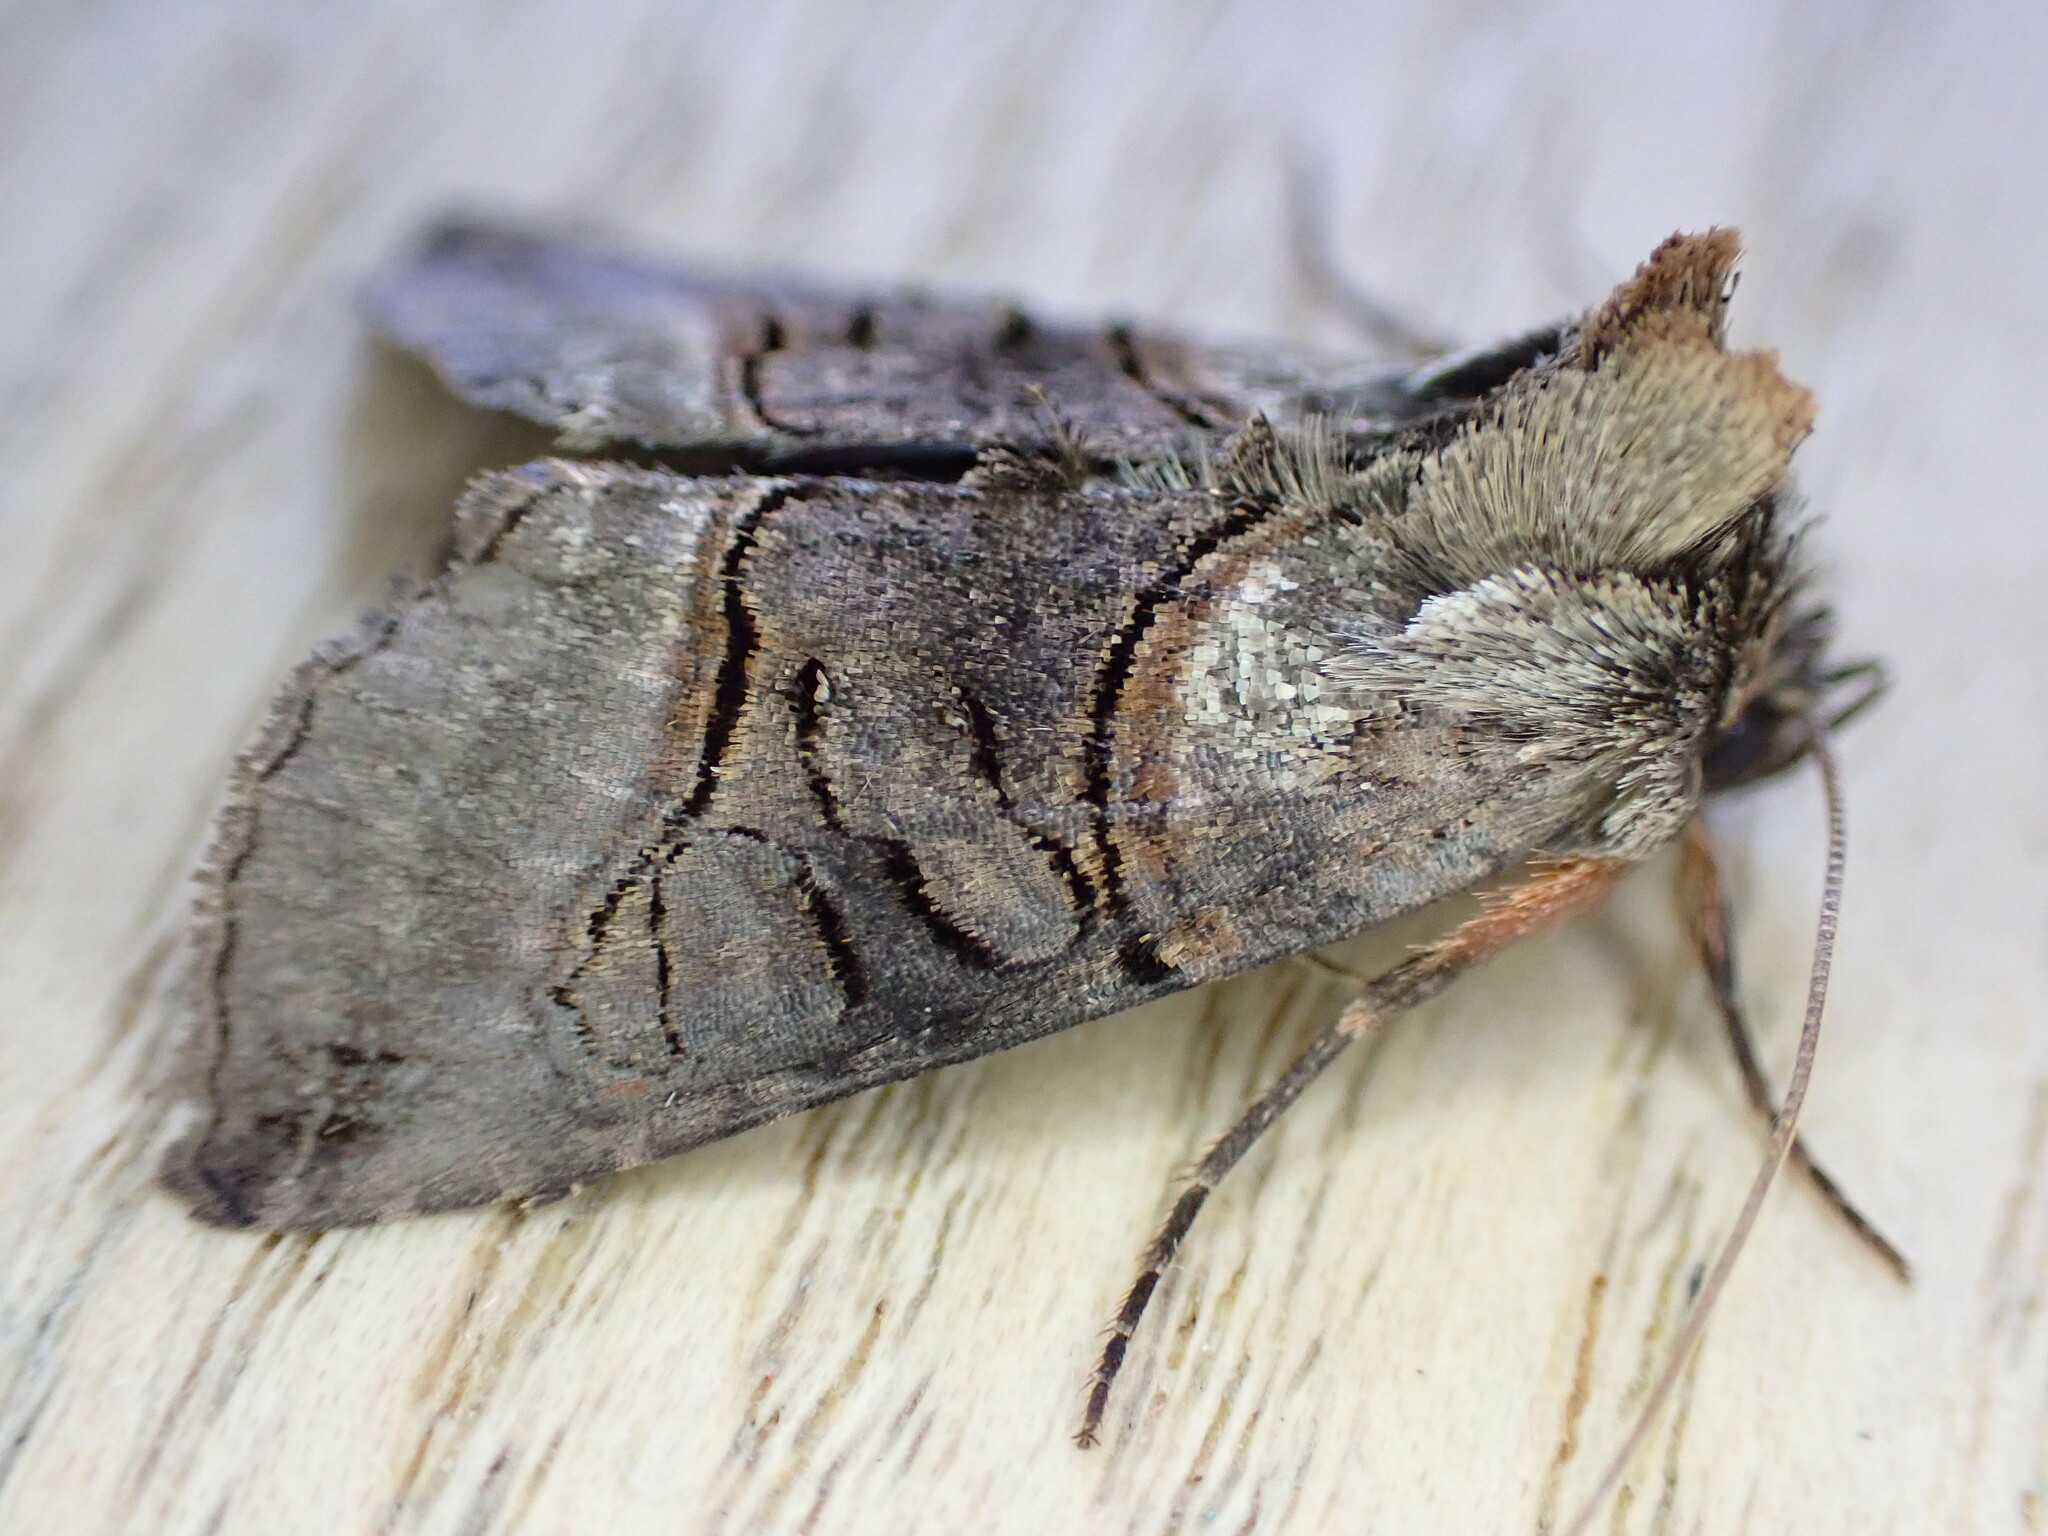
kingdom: Animalia
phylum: Arthropoda
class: Insecta
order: Lepidoptera
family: Noctuidae
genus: Abrostola
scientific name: Abrostola tripartita
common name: Spectacle
